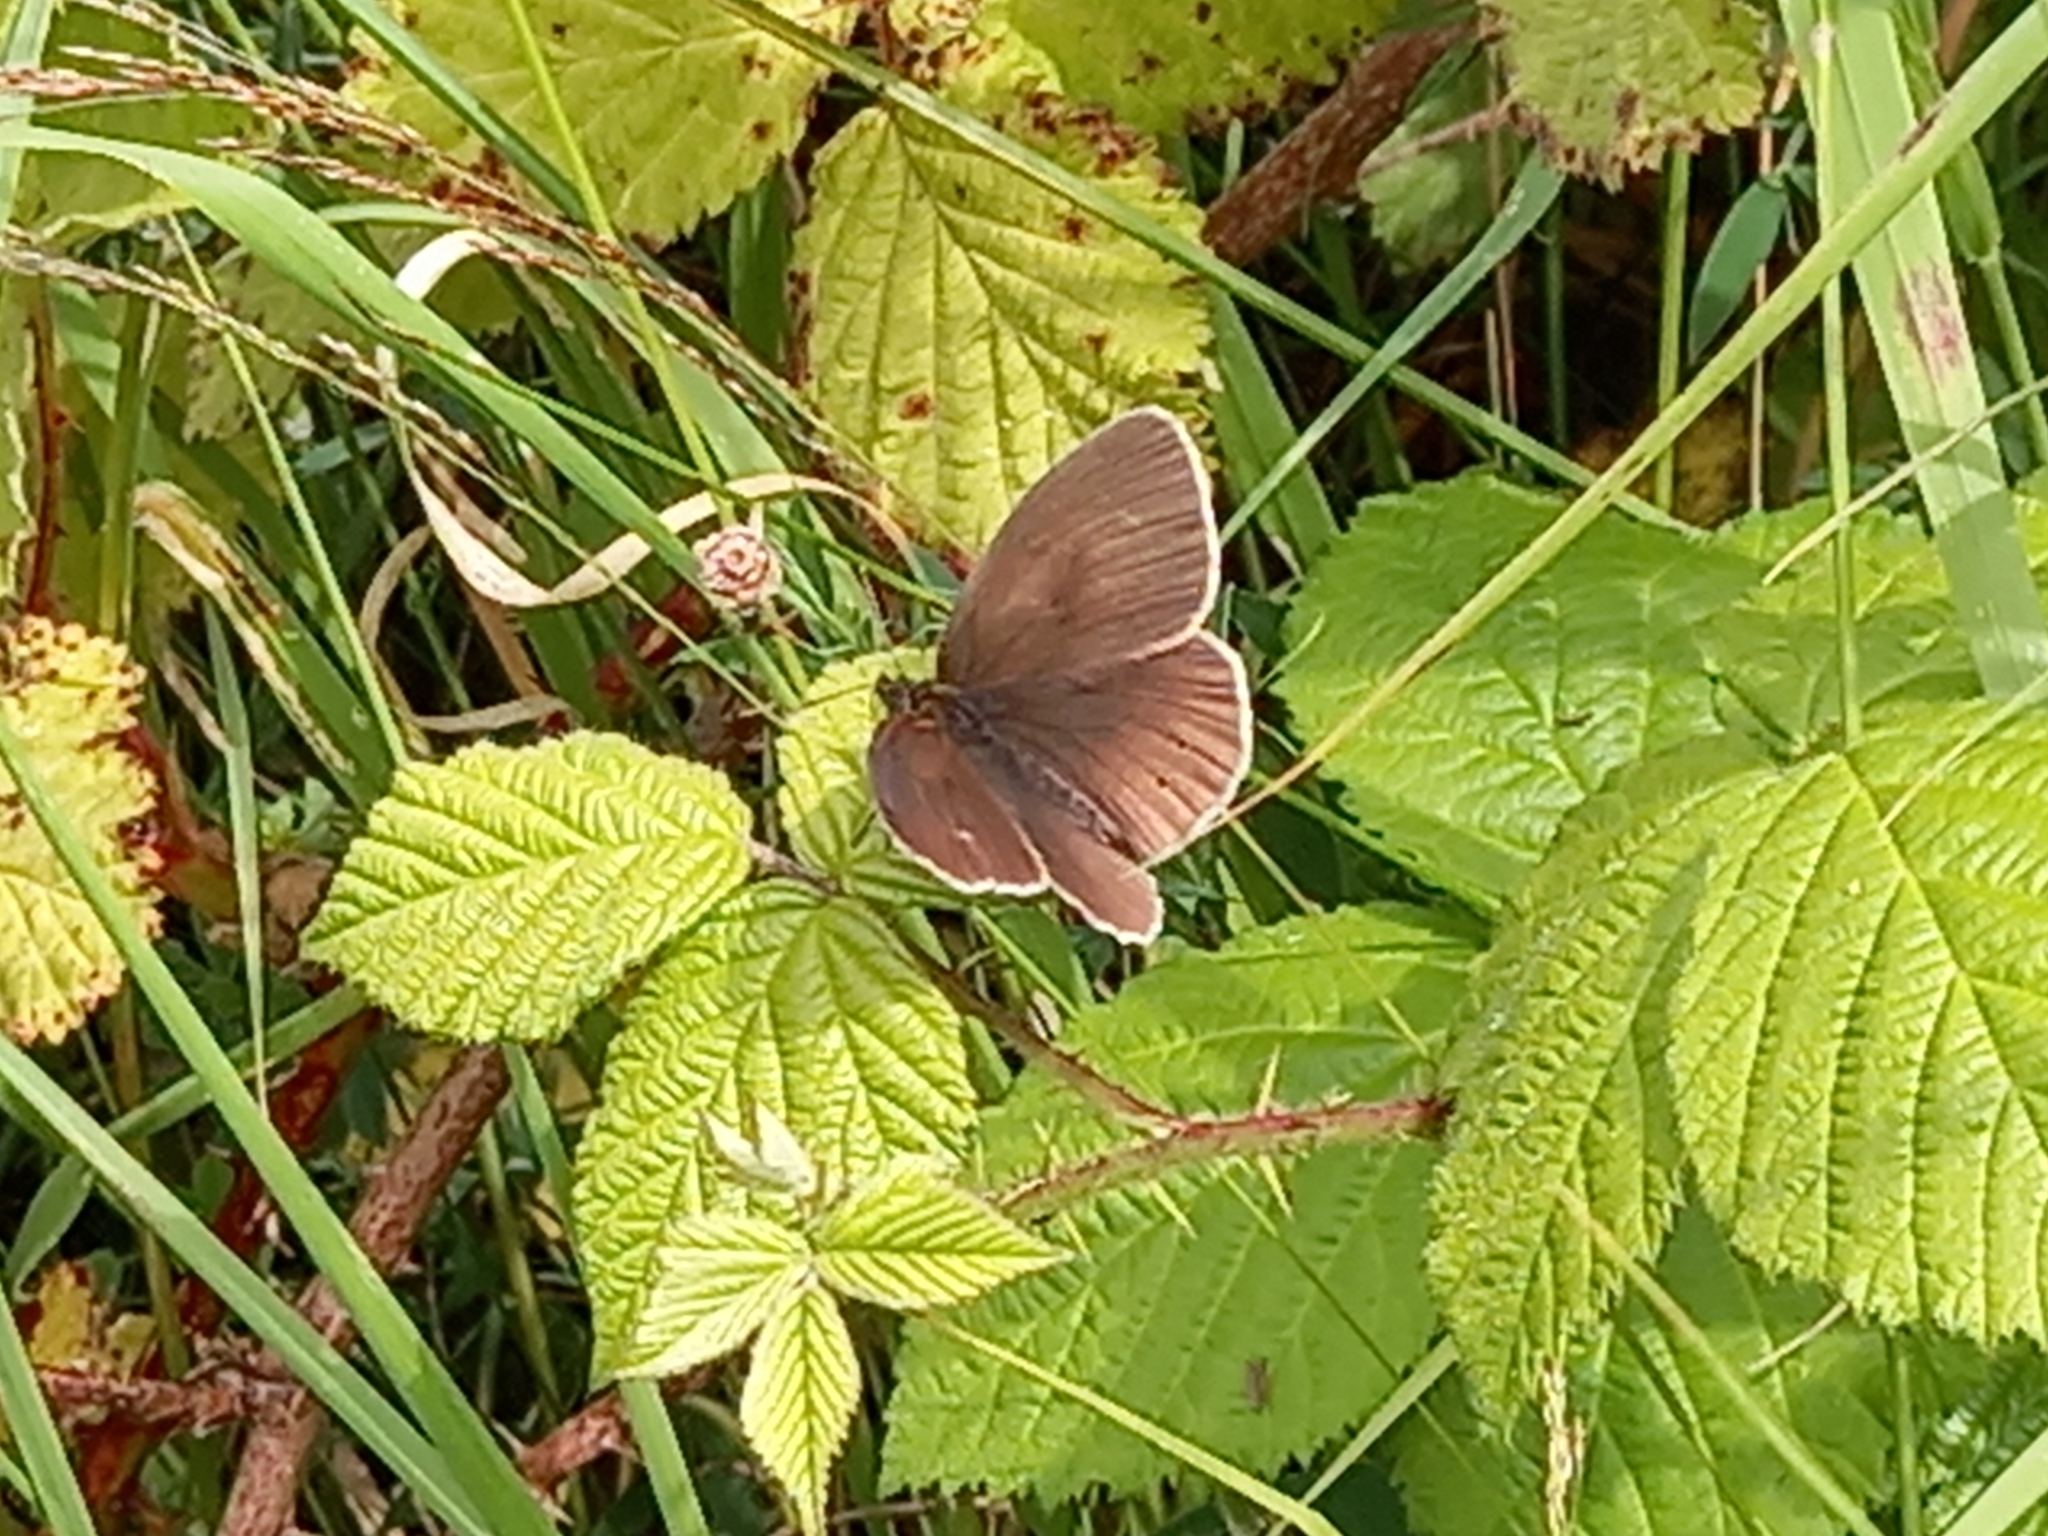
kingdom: Animalia
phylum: Arthropoda
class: Insecta
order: Lepidoptera
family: Nymphalidae
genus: Aphantopus
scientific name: Aphantopus hyperantus
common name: Ringlet
